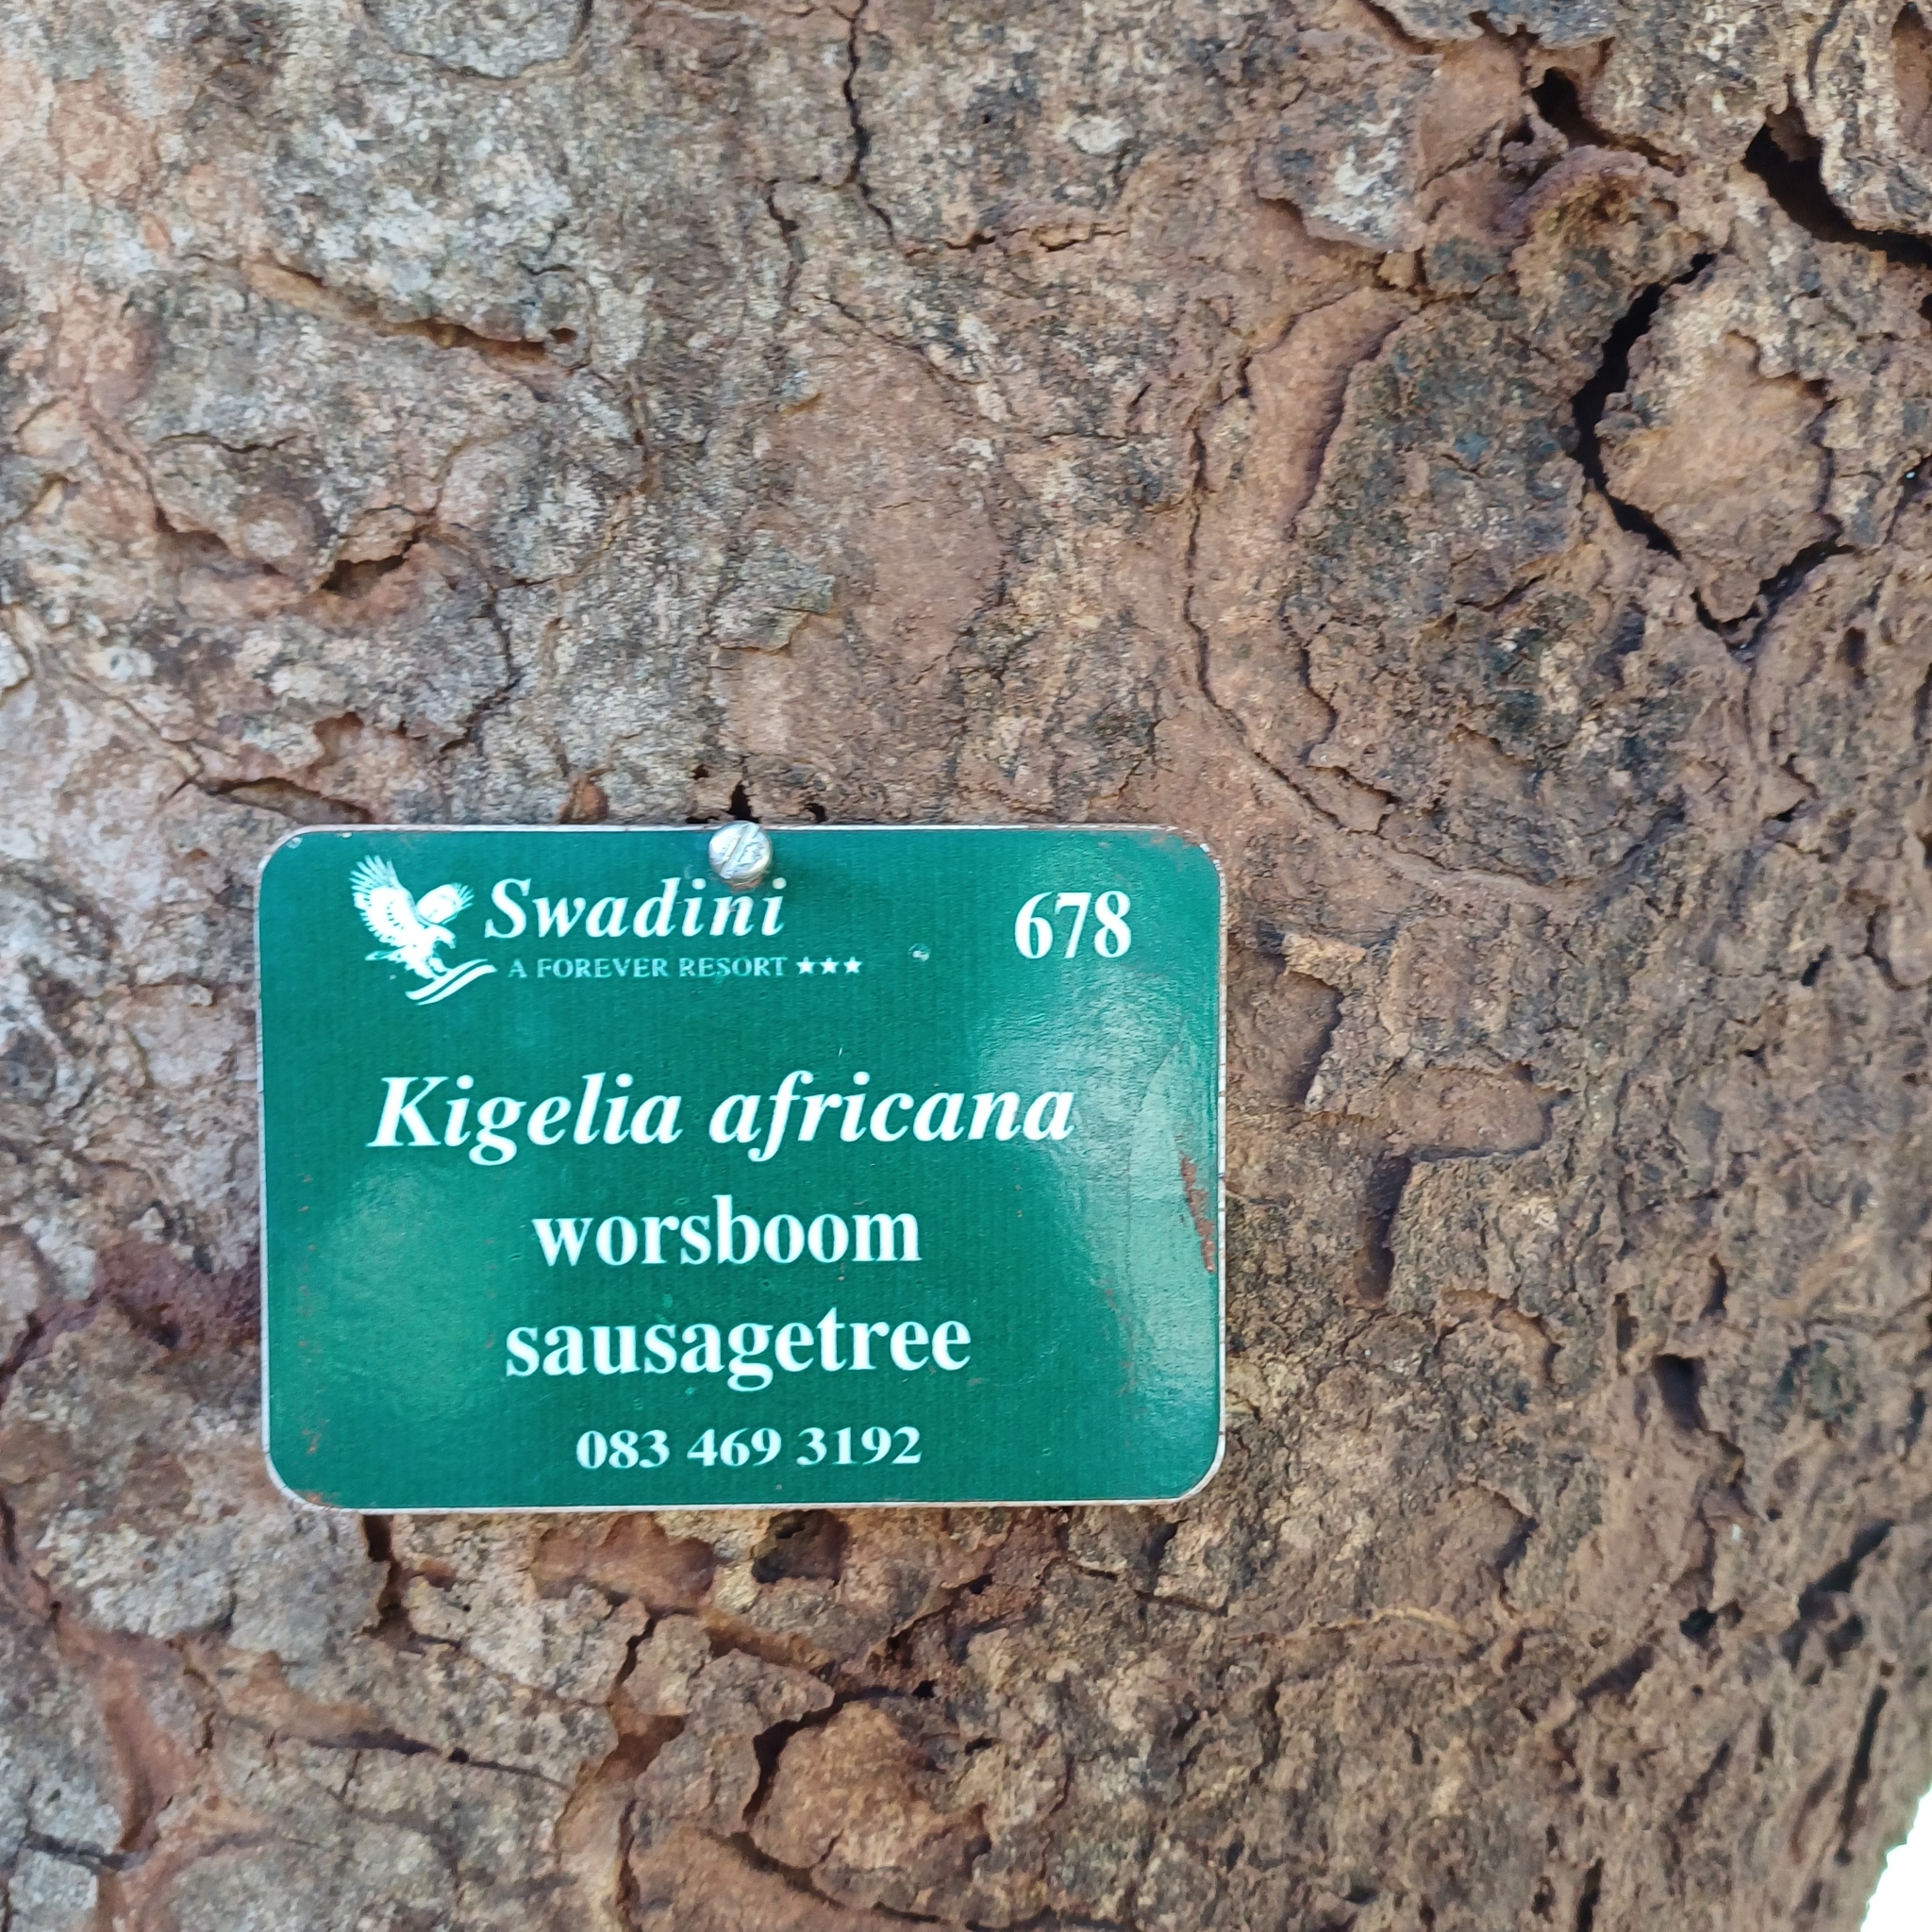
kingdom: Plantae
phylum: Tracheophyta
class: Magnoliopsida
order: Lamiales
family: Bignoniaceae
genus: Kigelia
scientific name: Kigelia africana
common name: Sausage tree
